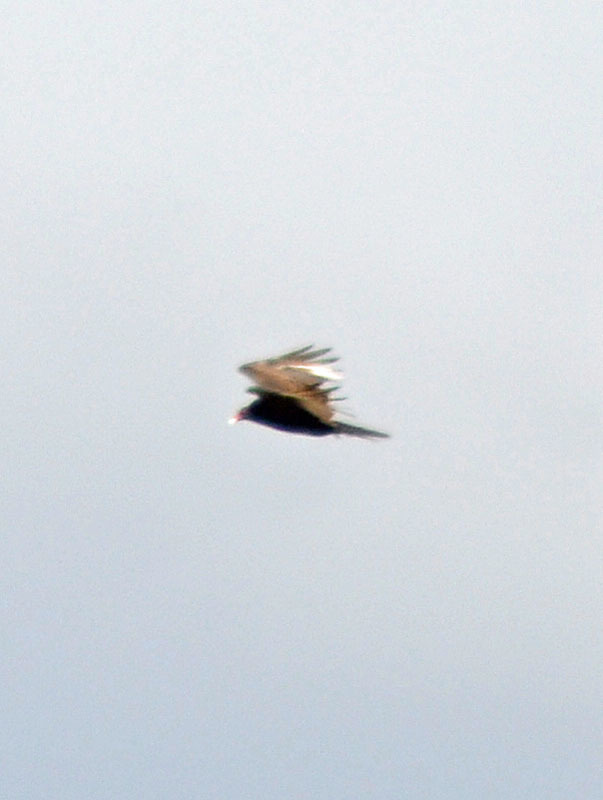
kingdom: Animalia
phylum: Chordata
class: Aves
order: Accipitriformes
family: Cathartidae
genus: Cathartes
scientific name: Cathartes aura
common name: Turkey vulture
